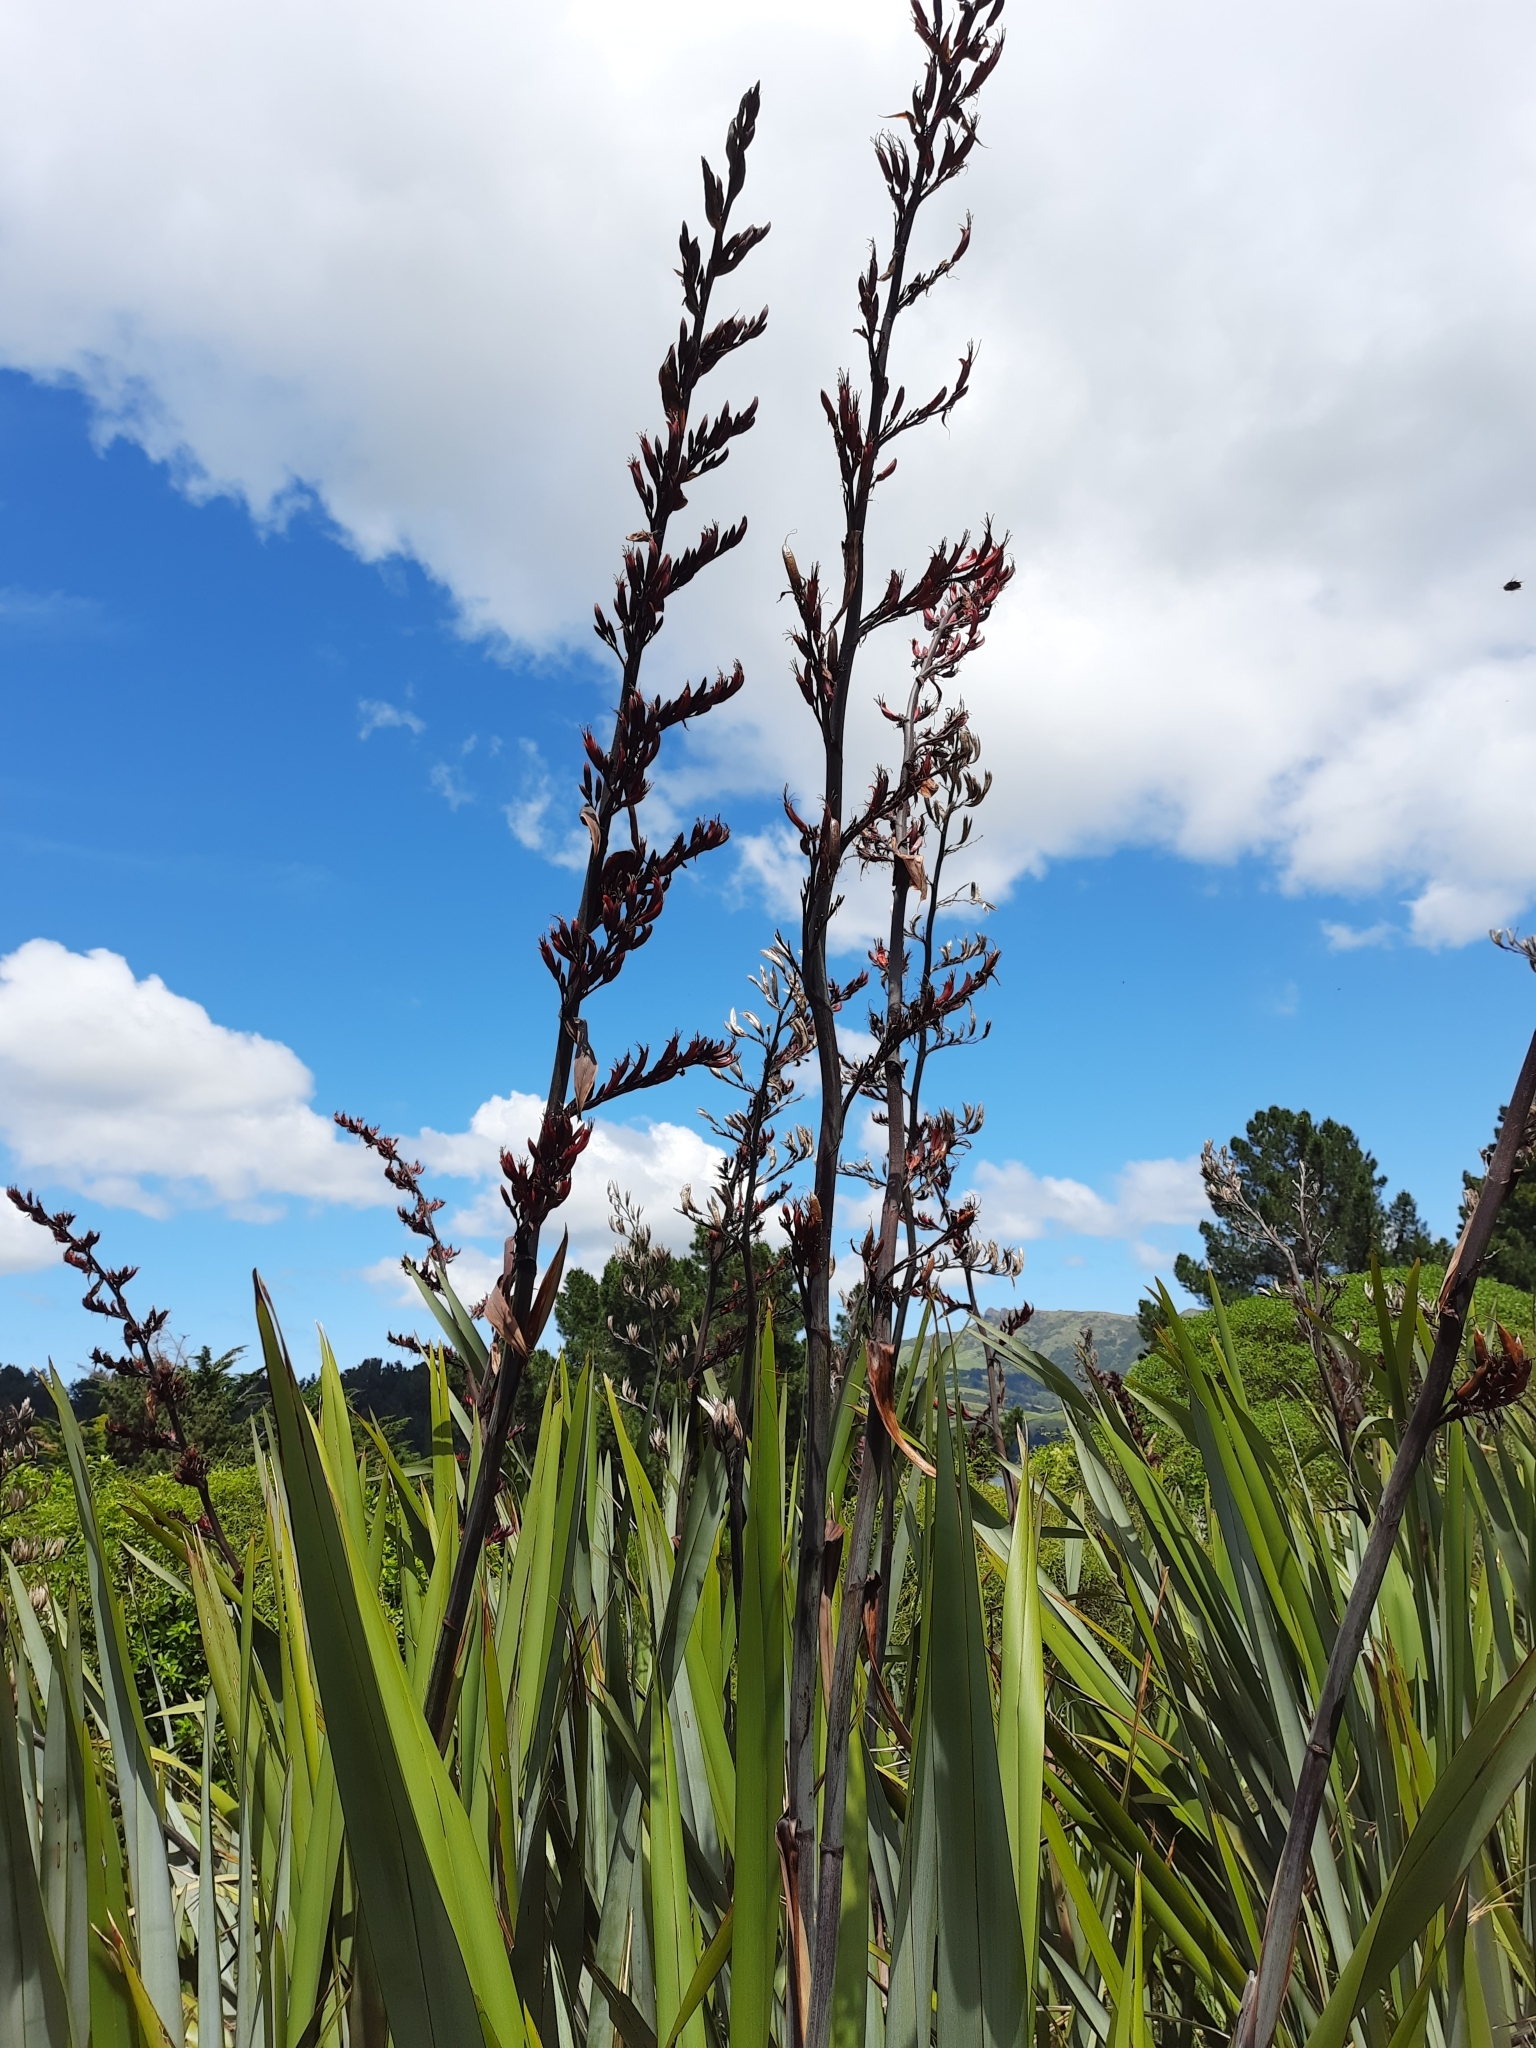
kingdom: Plantae
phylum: Tracheophyta
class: Liliopsida
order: Asparagales
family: Asphodelaceae
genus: Phormium
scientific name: Phormium tenax
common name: New zealand flax
